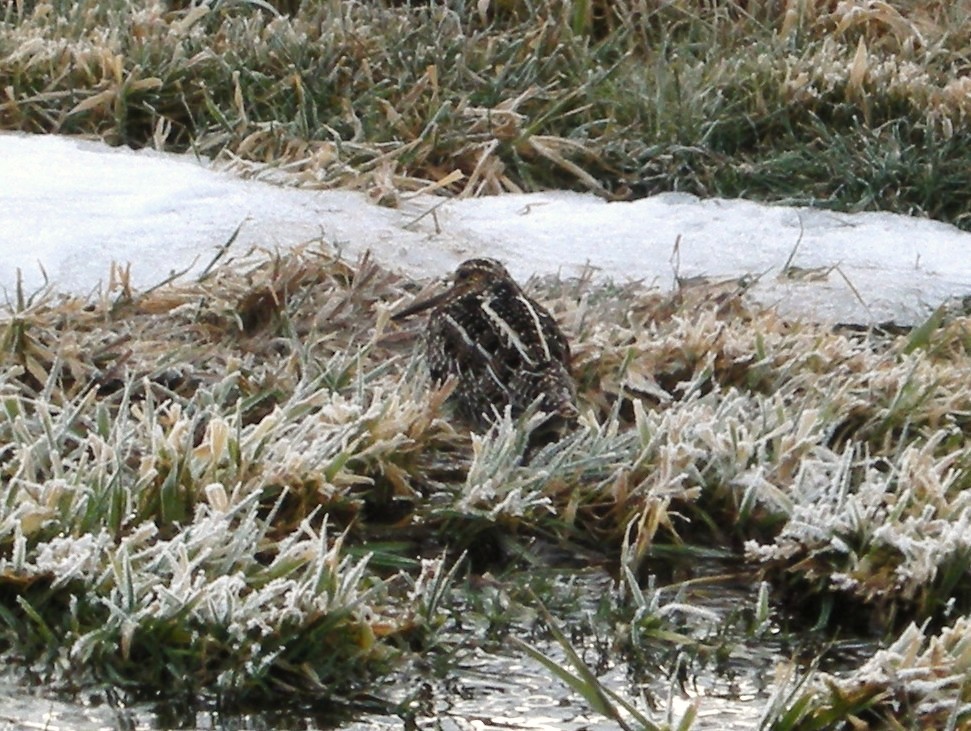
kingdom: Animalia
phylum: Chordata
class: Aves
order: Charadriiformes
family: Scolopacidae
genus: Gallinago
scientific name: Gallinago delicata
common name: Wilson's snipe
